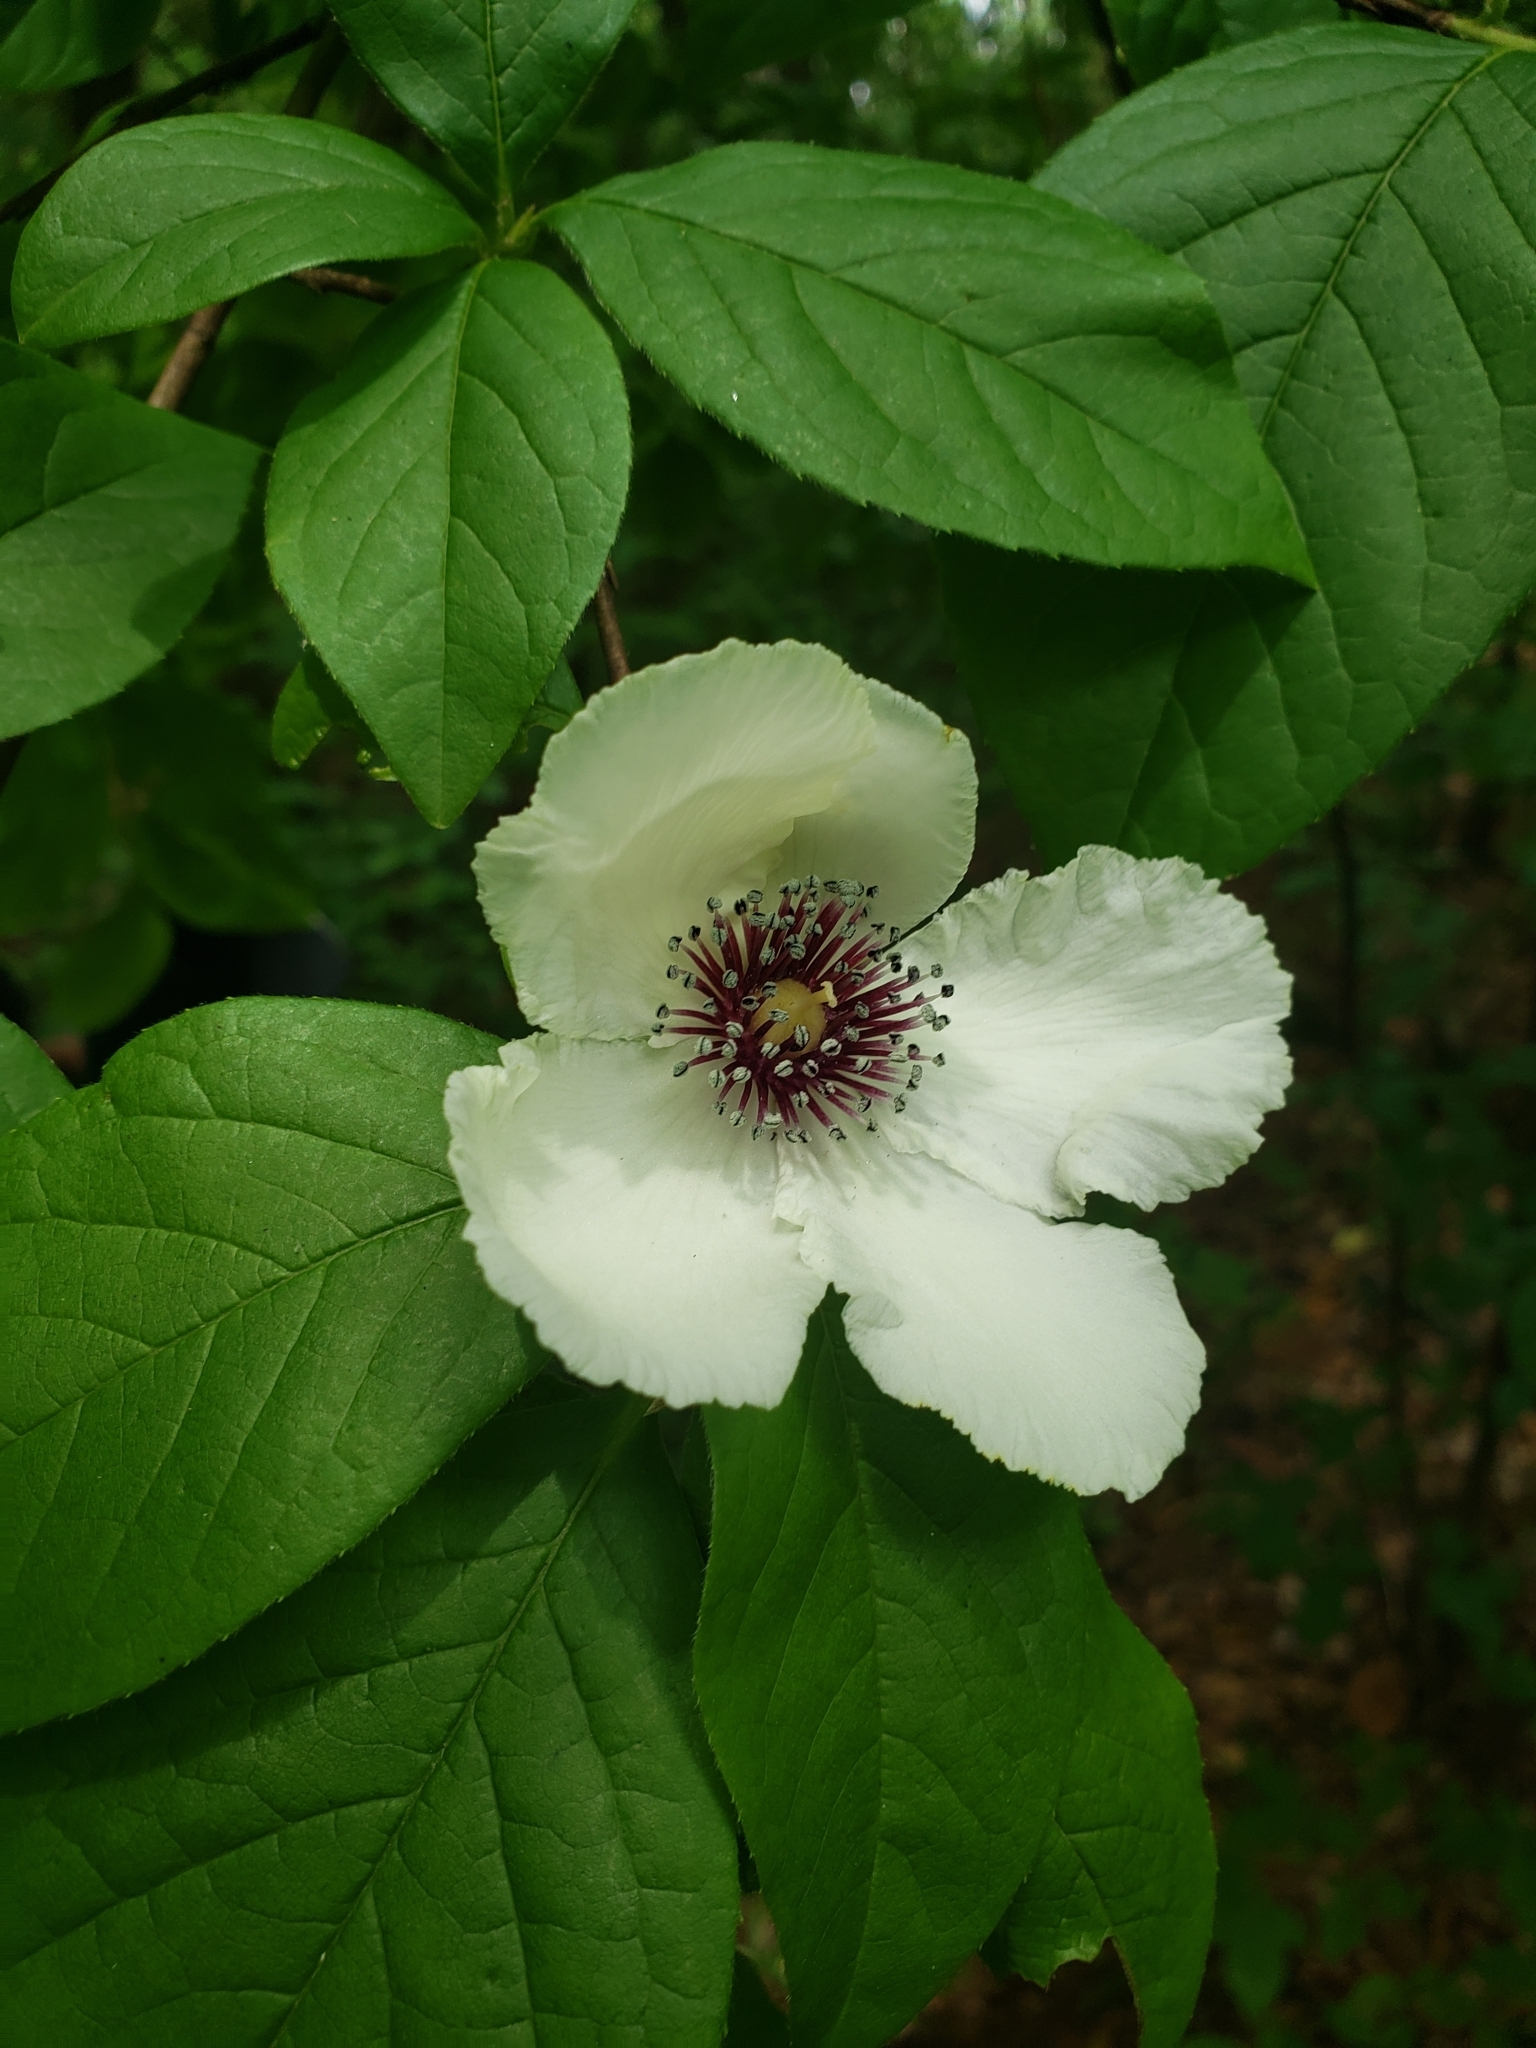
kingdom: Plantae
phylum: Tracheophyta
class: Magnoliopsida
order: Ericales
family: Theaceae
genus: Stewartia
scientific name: Stewartia malacodendron
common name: Virginia stewartia
